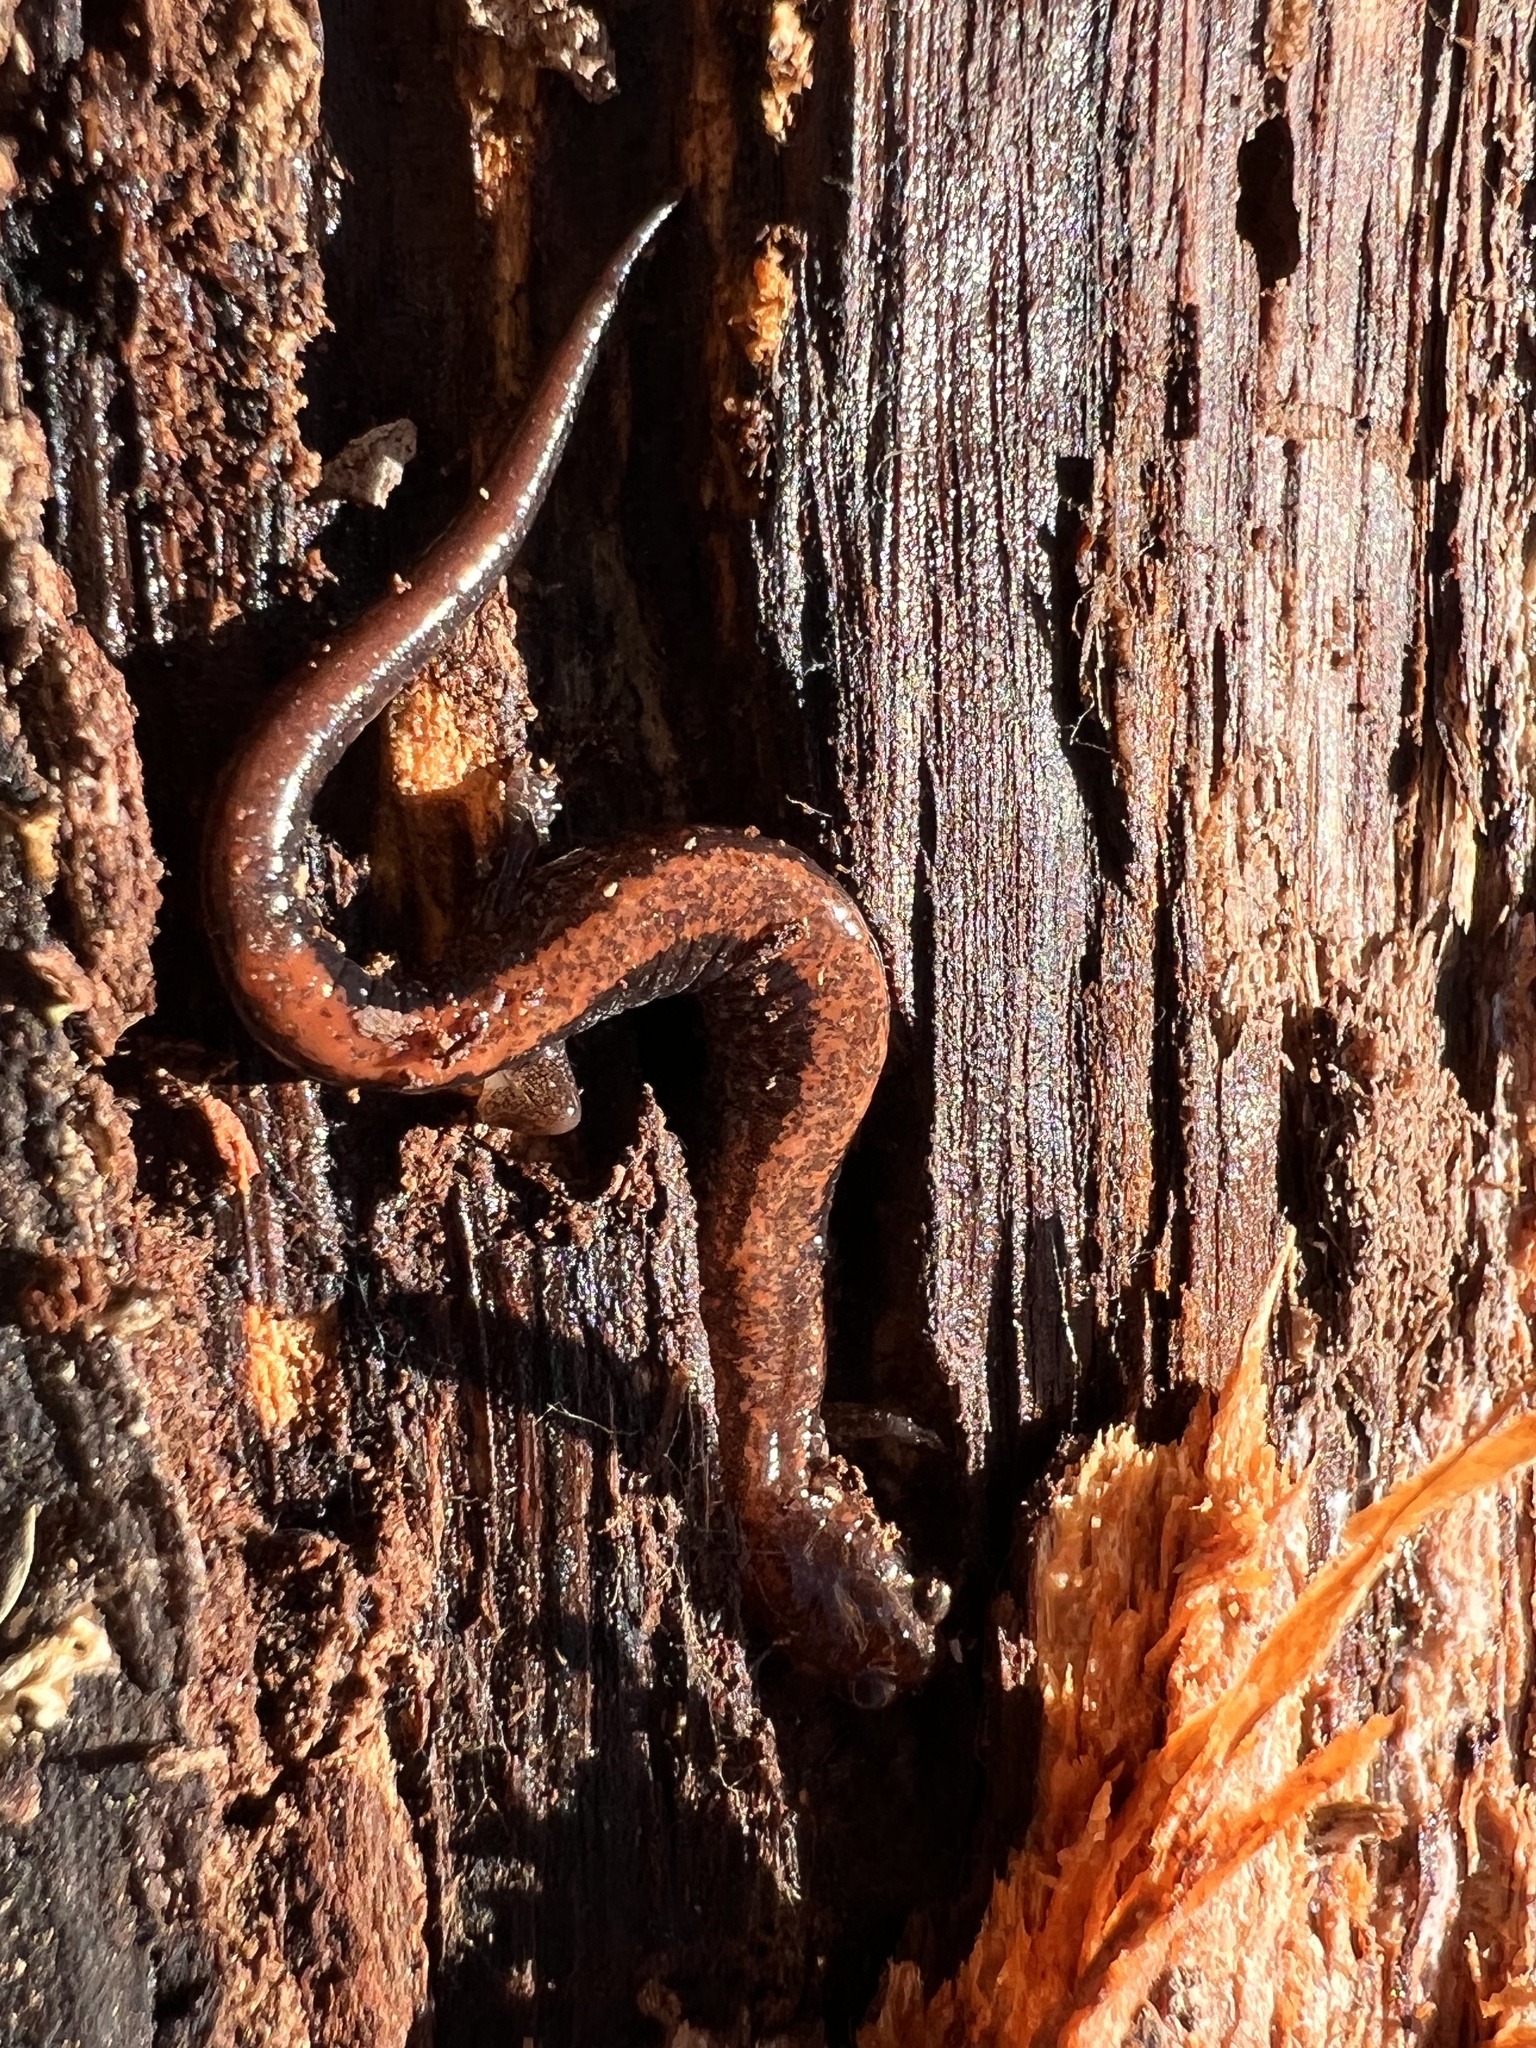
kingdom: Animalia
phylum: Chordata
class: Amphibia
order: Caudata
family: Plethodontidae
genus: Plethodon
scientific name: Plethodon cinereus
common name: Redback salamander
